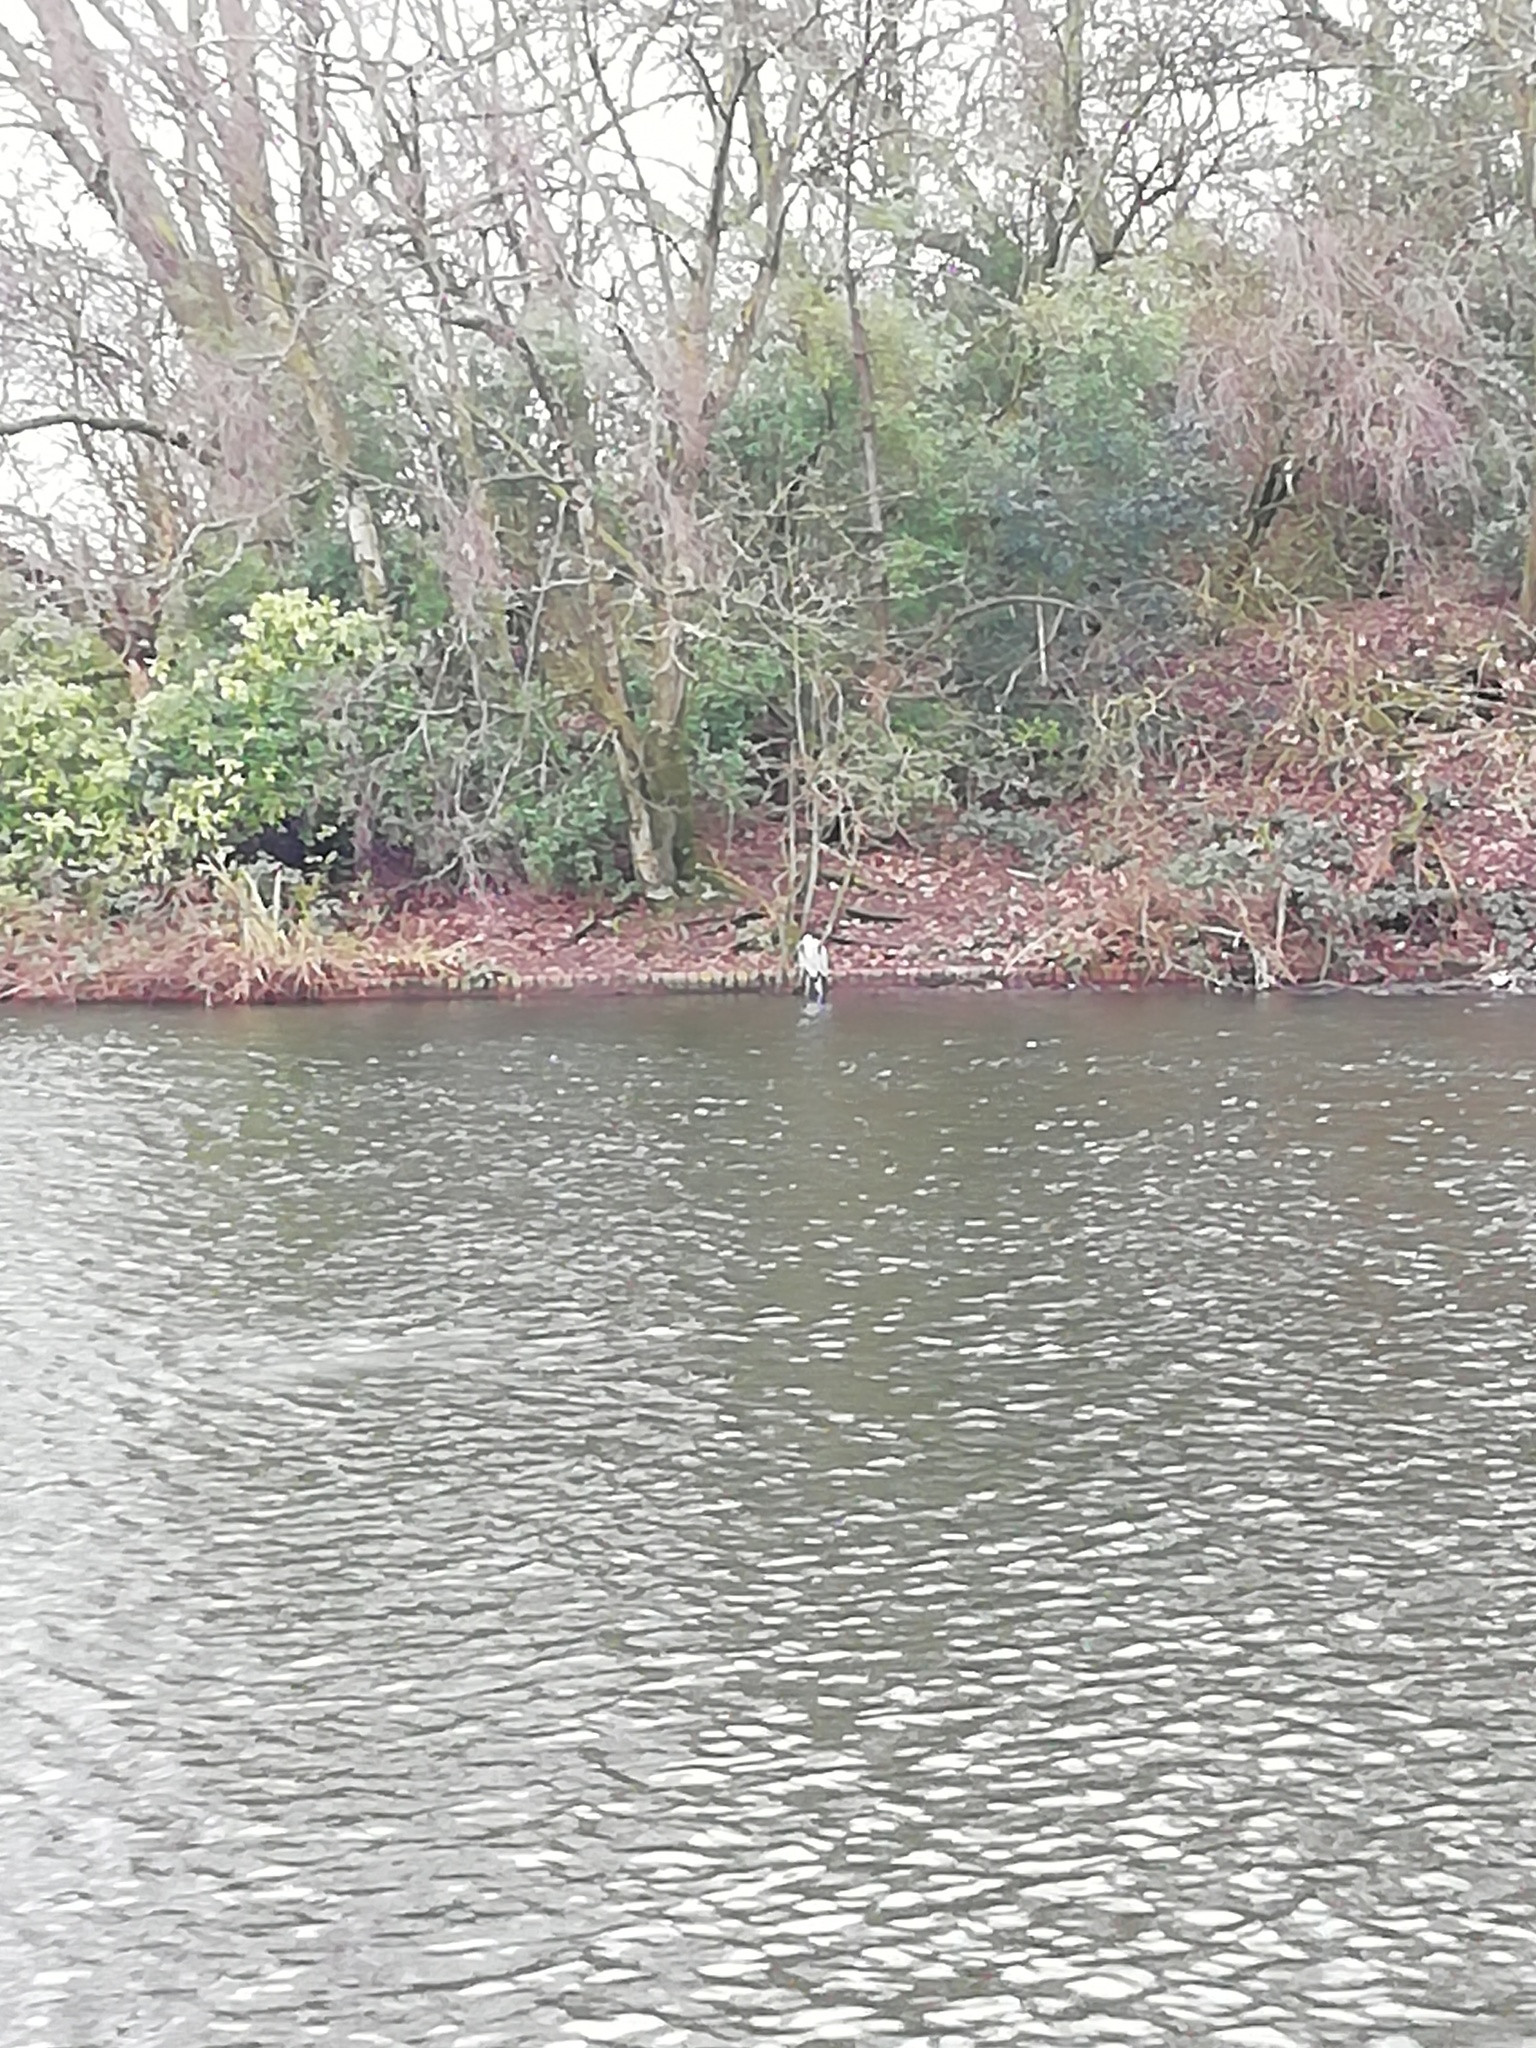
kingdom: Animalia
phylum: Chordata
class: Aves
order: Pelecaniformes
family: Ardeidae
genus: Ardea
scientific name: Ardea cinerea
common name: Grey heron
